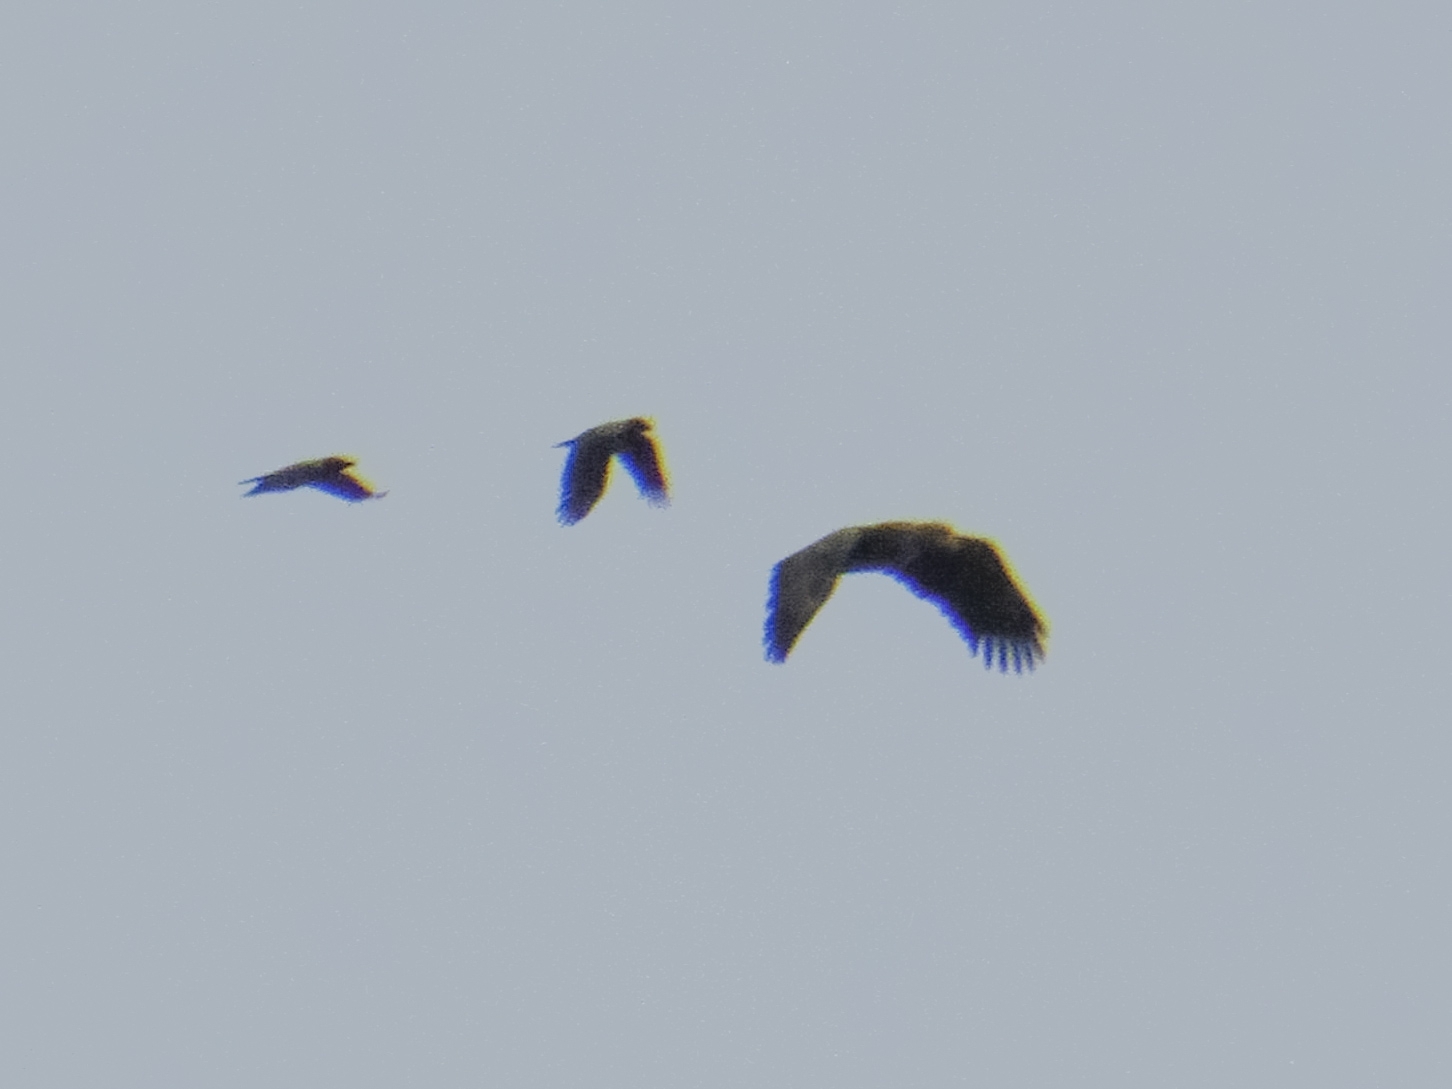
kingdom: Animalia
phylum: Chordata
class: Aves
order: Accipitriformes
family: Accipitridae
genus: Haliaeetus
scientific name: Haliaeetus albicilla
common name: White-tailed eagle
